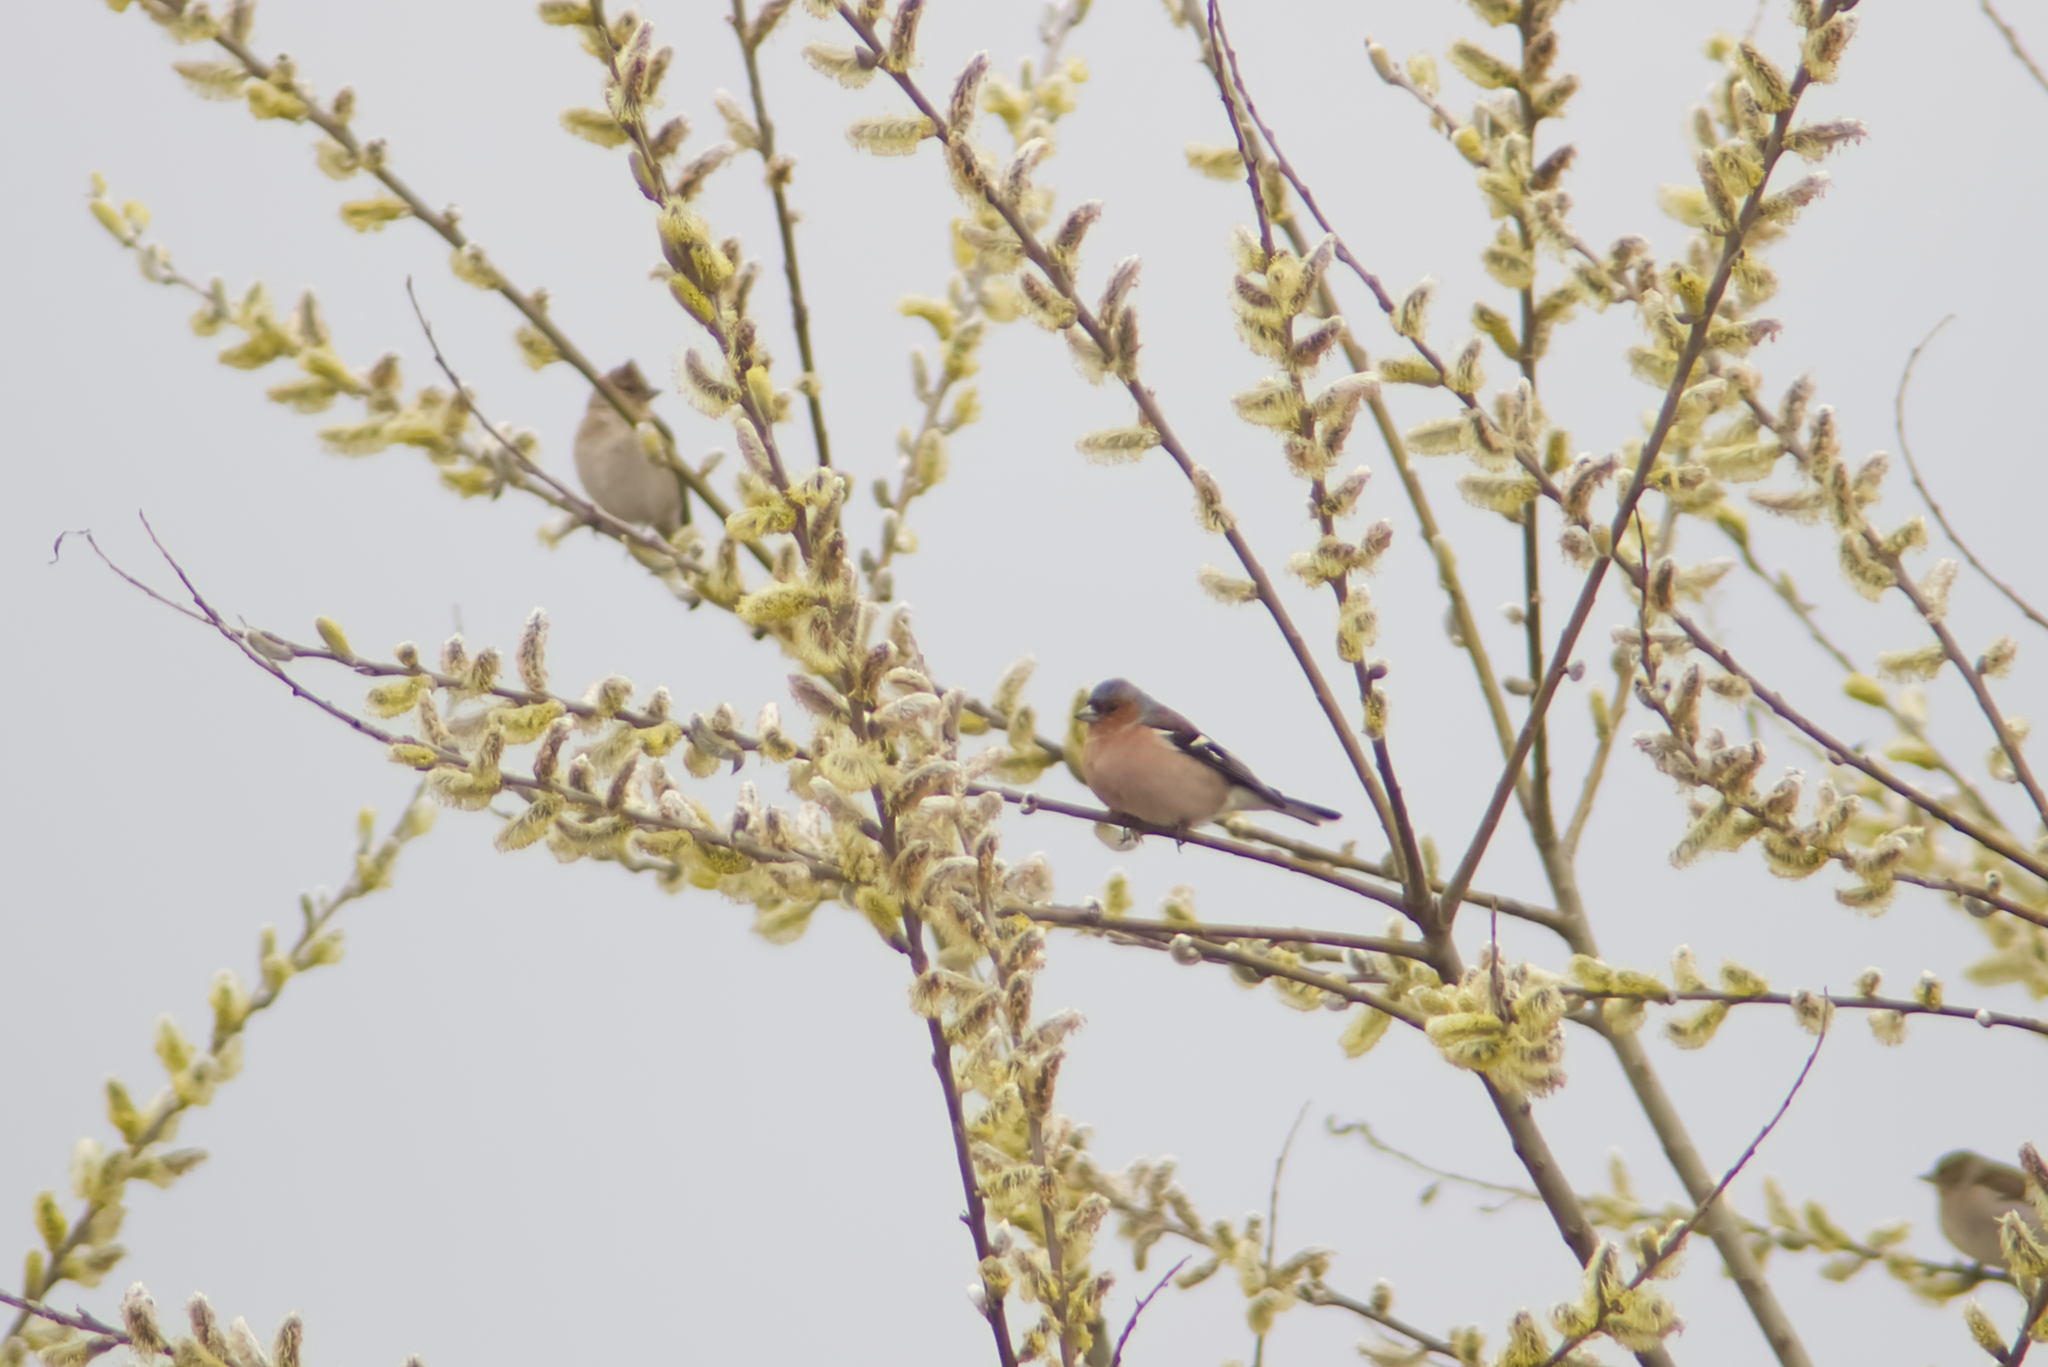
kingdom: Animalia
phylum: Chordata
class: Aves
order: Passeriformes
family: Fringillidae
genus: Fringilla
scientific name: Fringilla coelebs
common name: Common chaffinch
